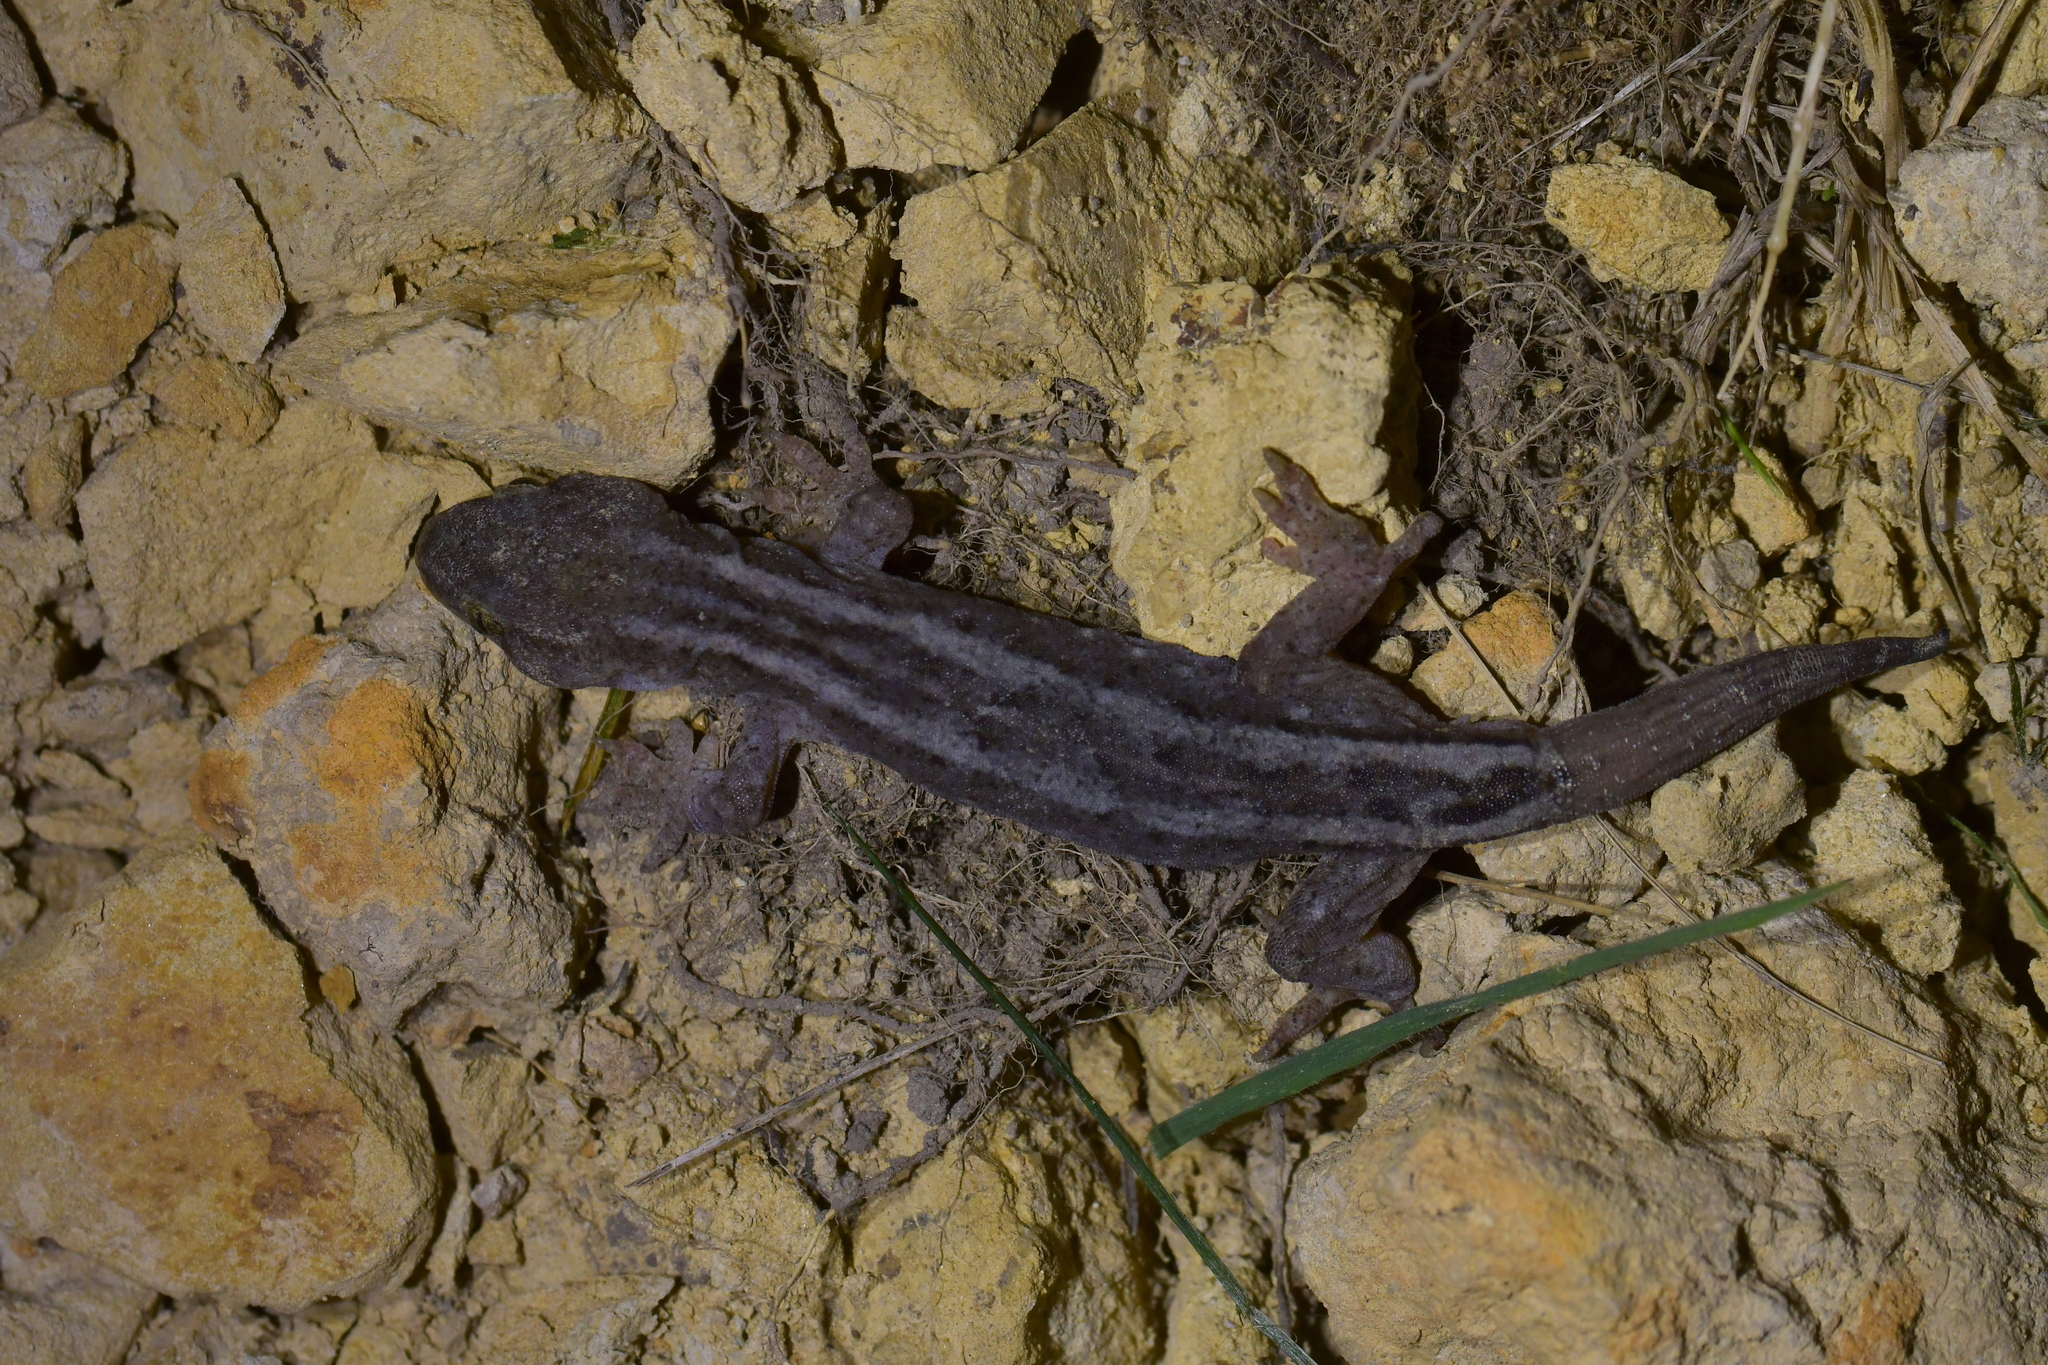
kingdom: Animalia
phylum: Chordata
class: Squamata
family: Diplodactylidae
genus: Woodworthia
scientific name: Woodworthia maculata
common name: Raukawa gecko
